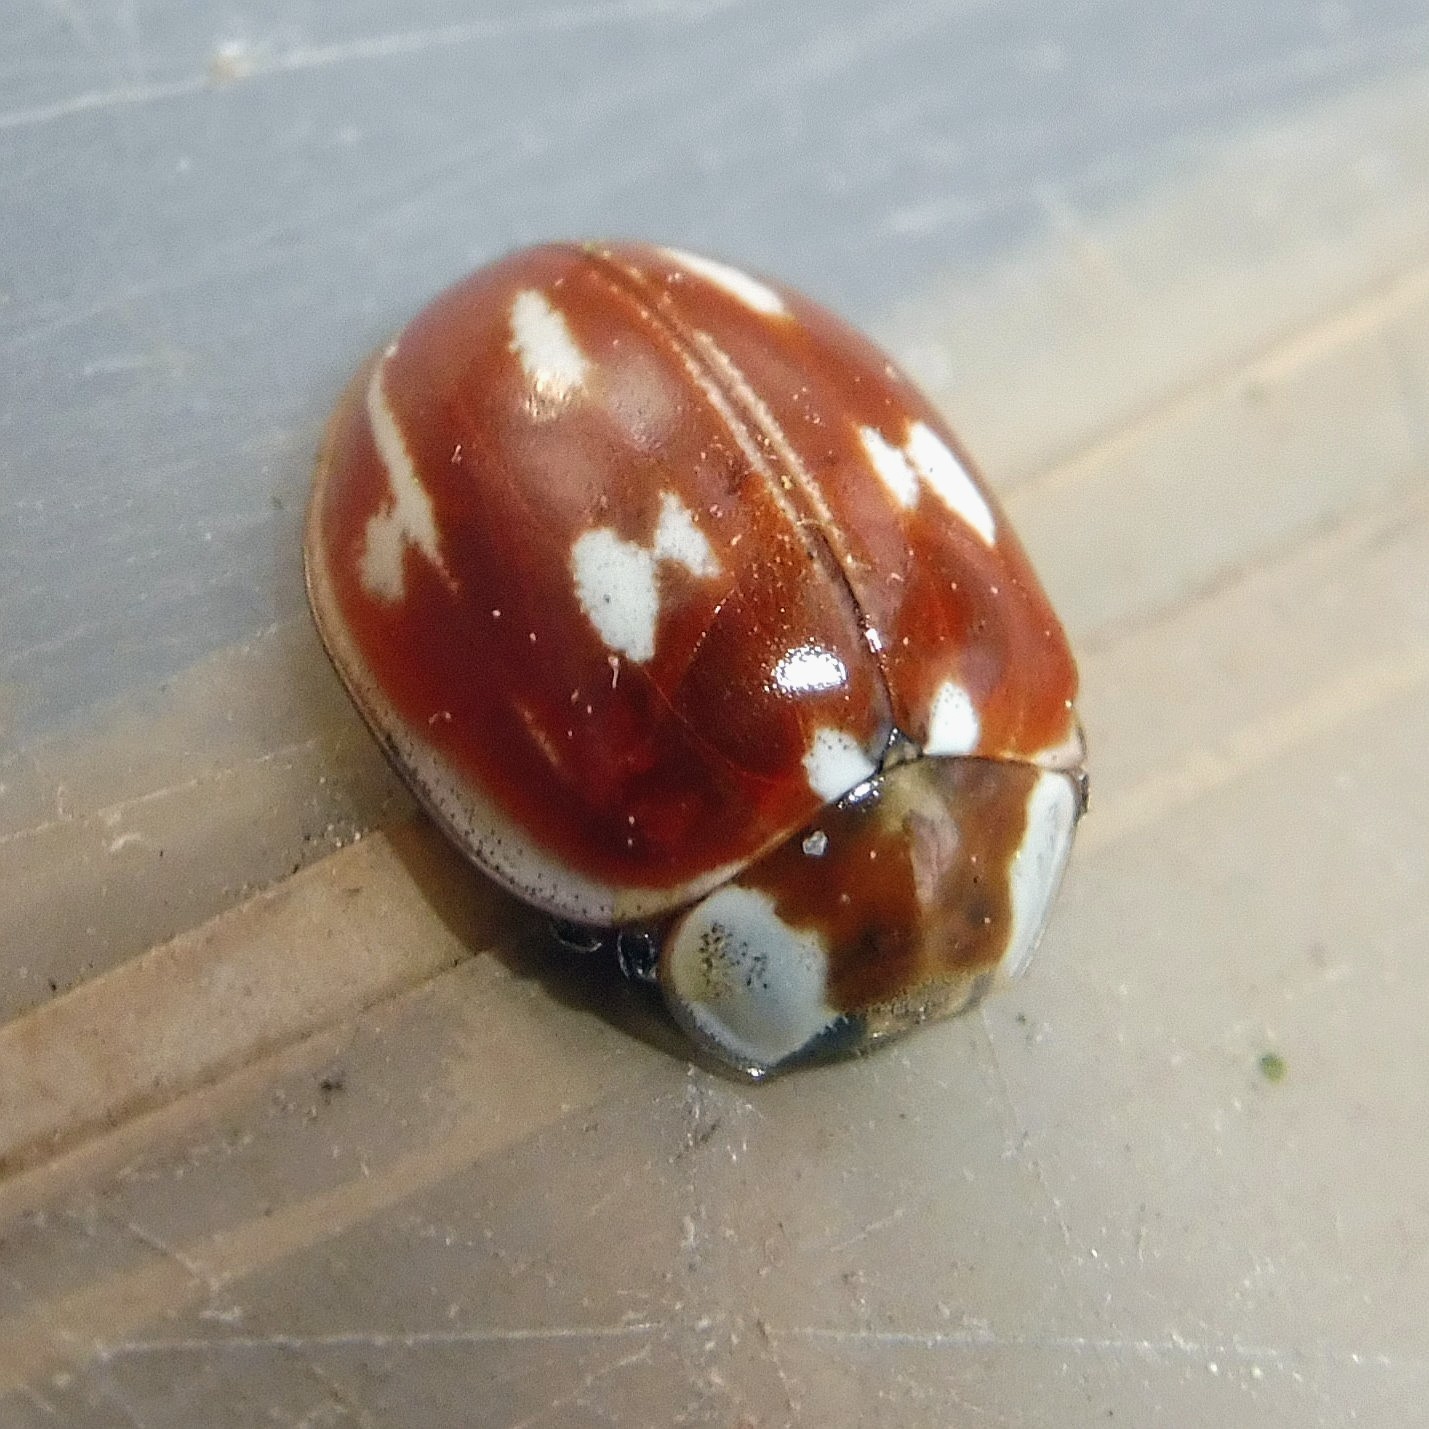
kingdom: Animalia
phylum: Arthropoda
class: Insecta
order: Coleoptera
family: Coccinellidae
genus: Myzia
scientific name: Myzia oblongoguttata
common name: Striped ladybird
